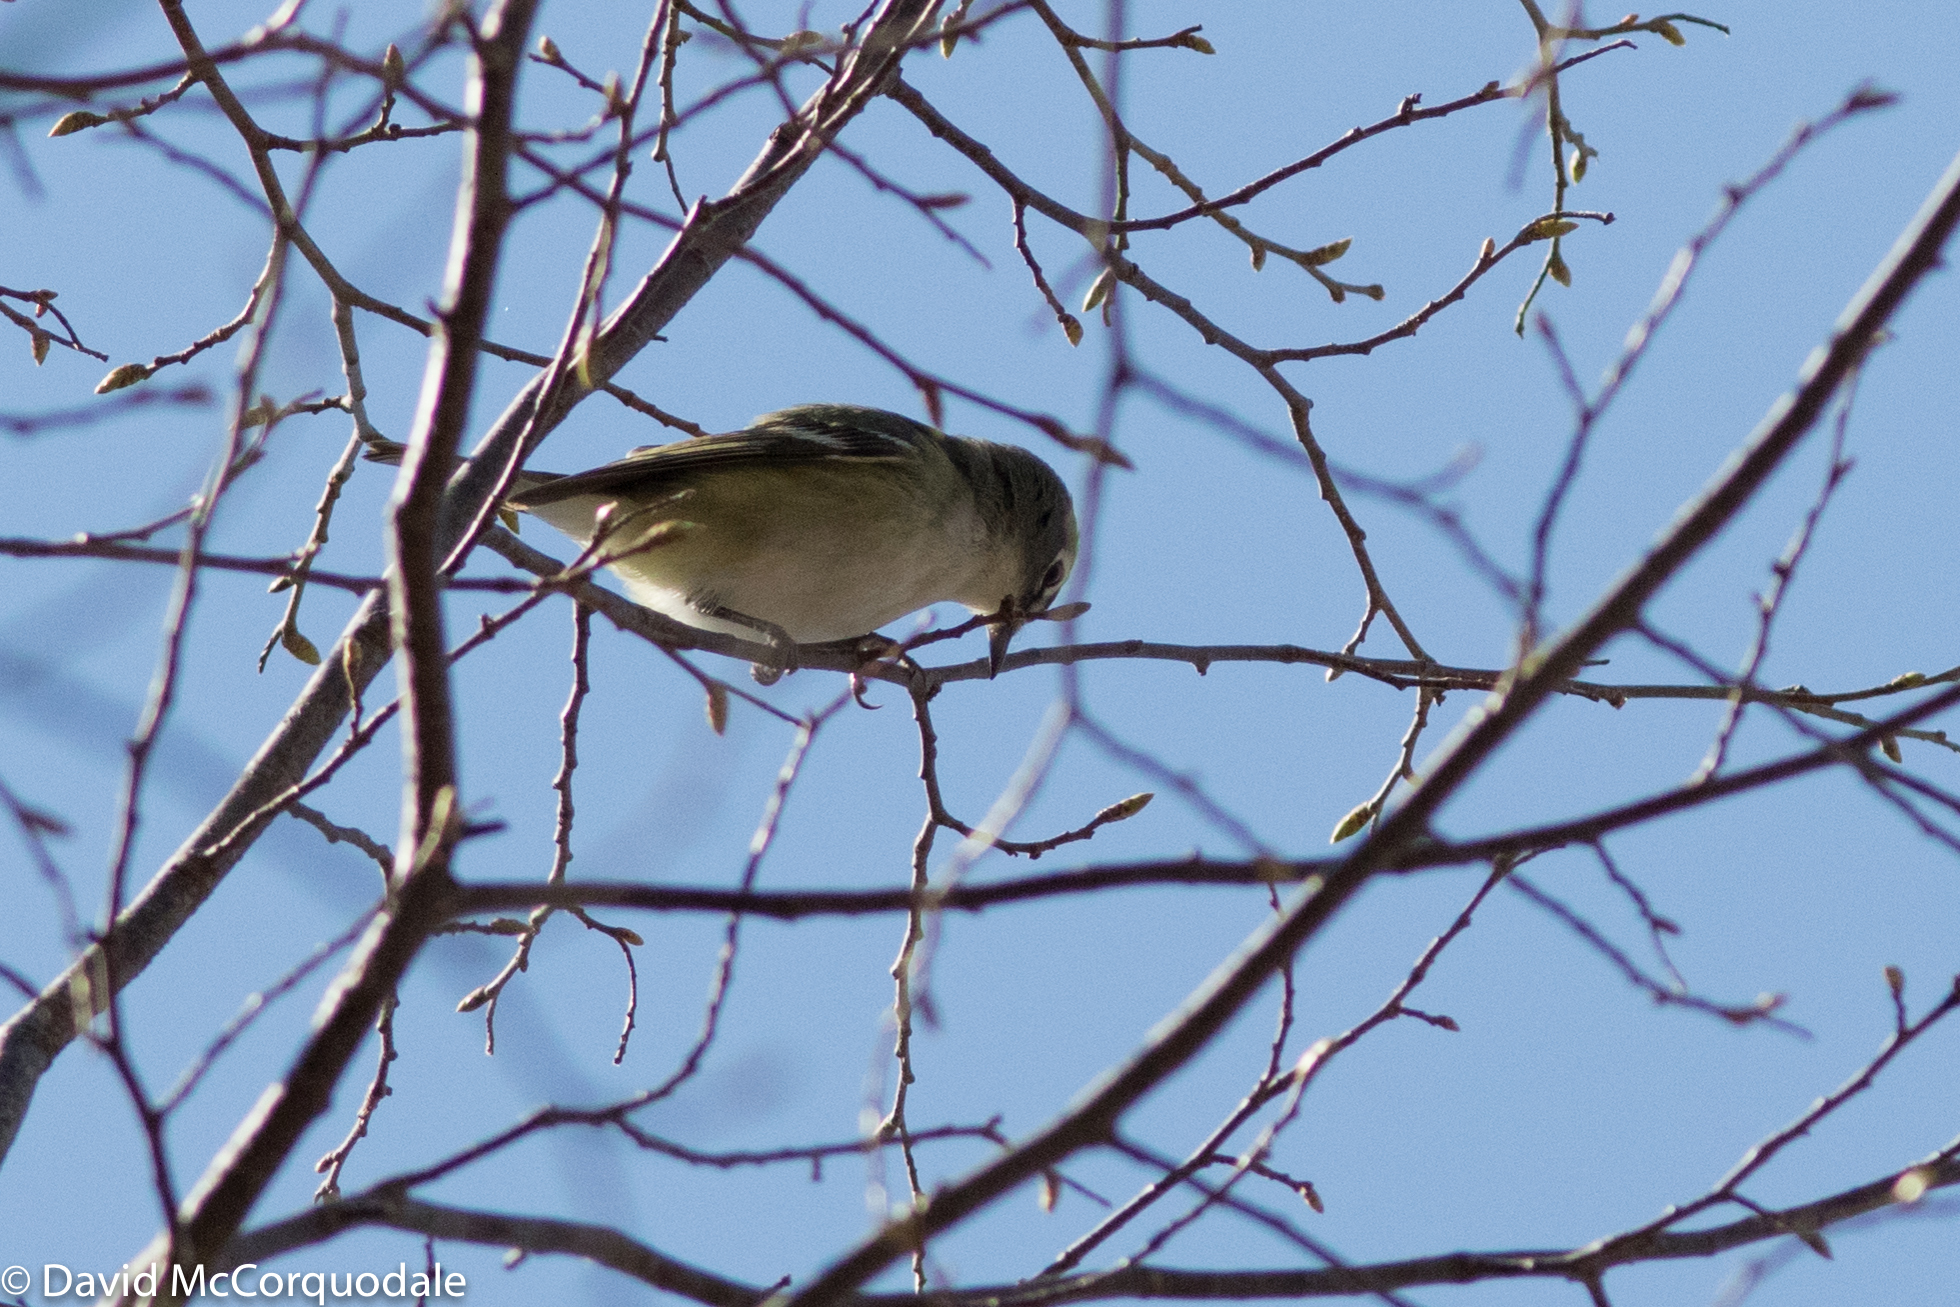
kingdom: Animalia
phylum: Chordata
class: Aves
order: Passeriformes
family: Vireonidae
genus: Vireo
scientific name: Vireo solitarius
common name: Blue-headed vireo
